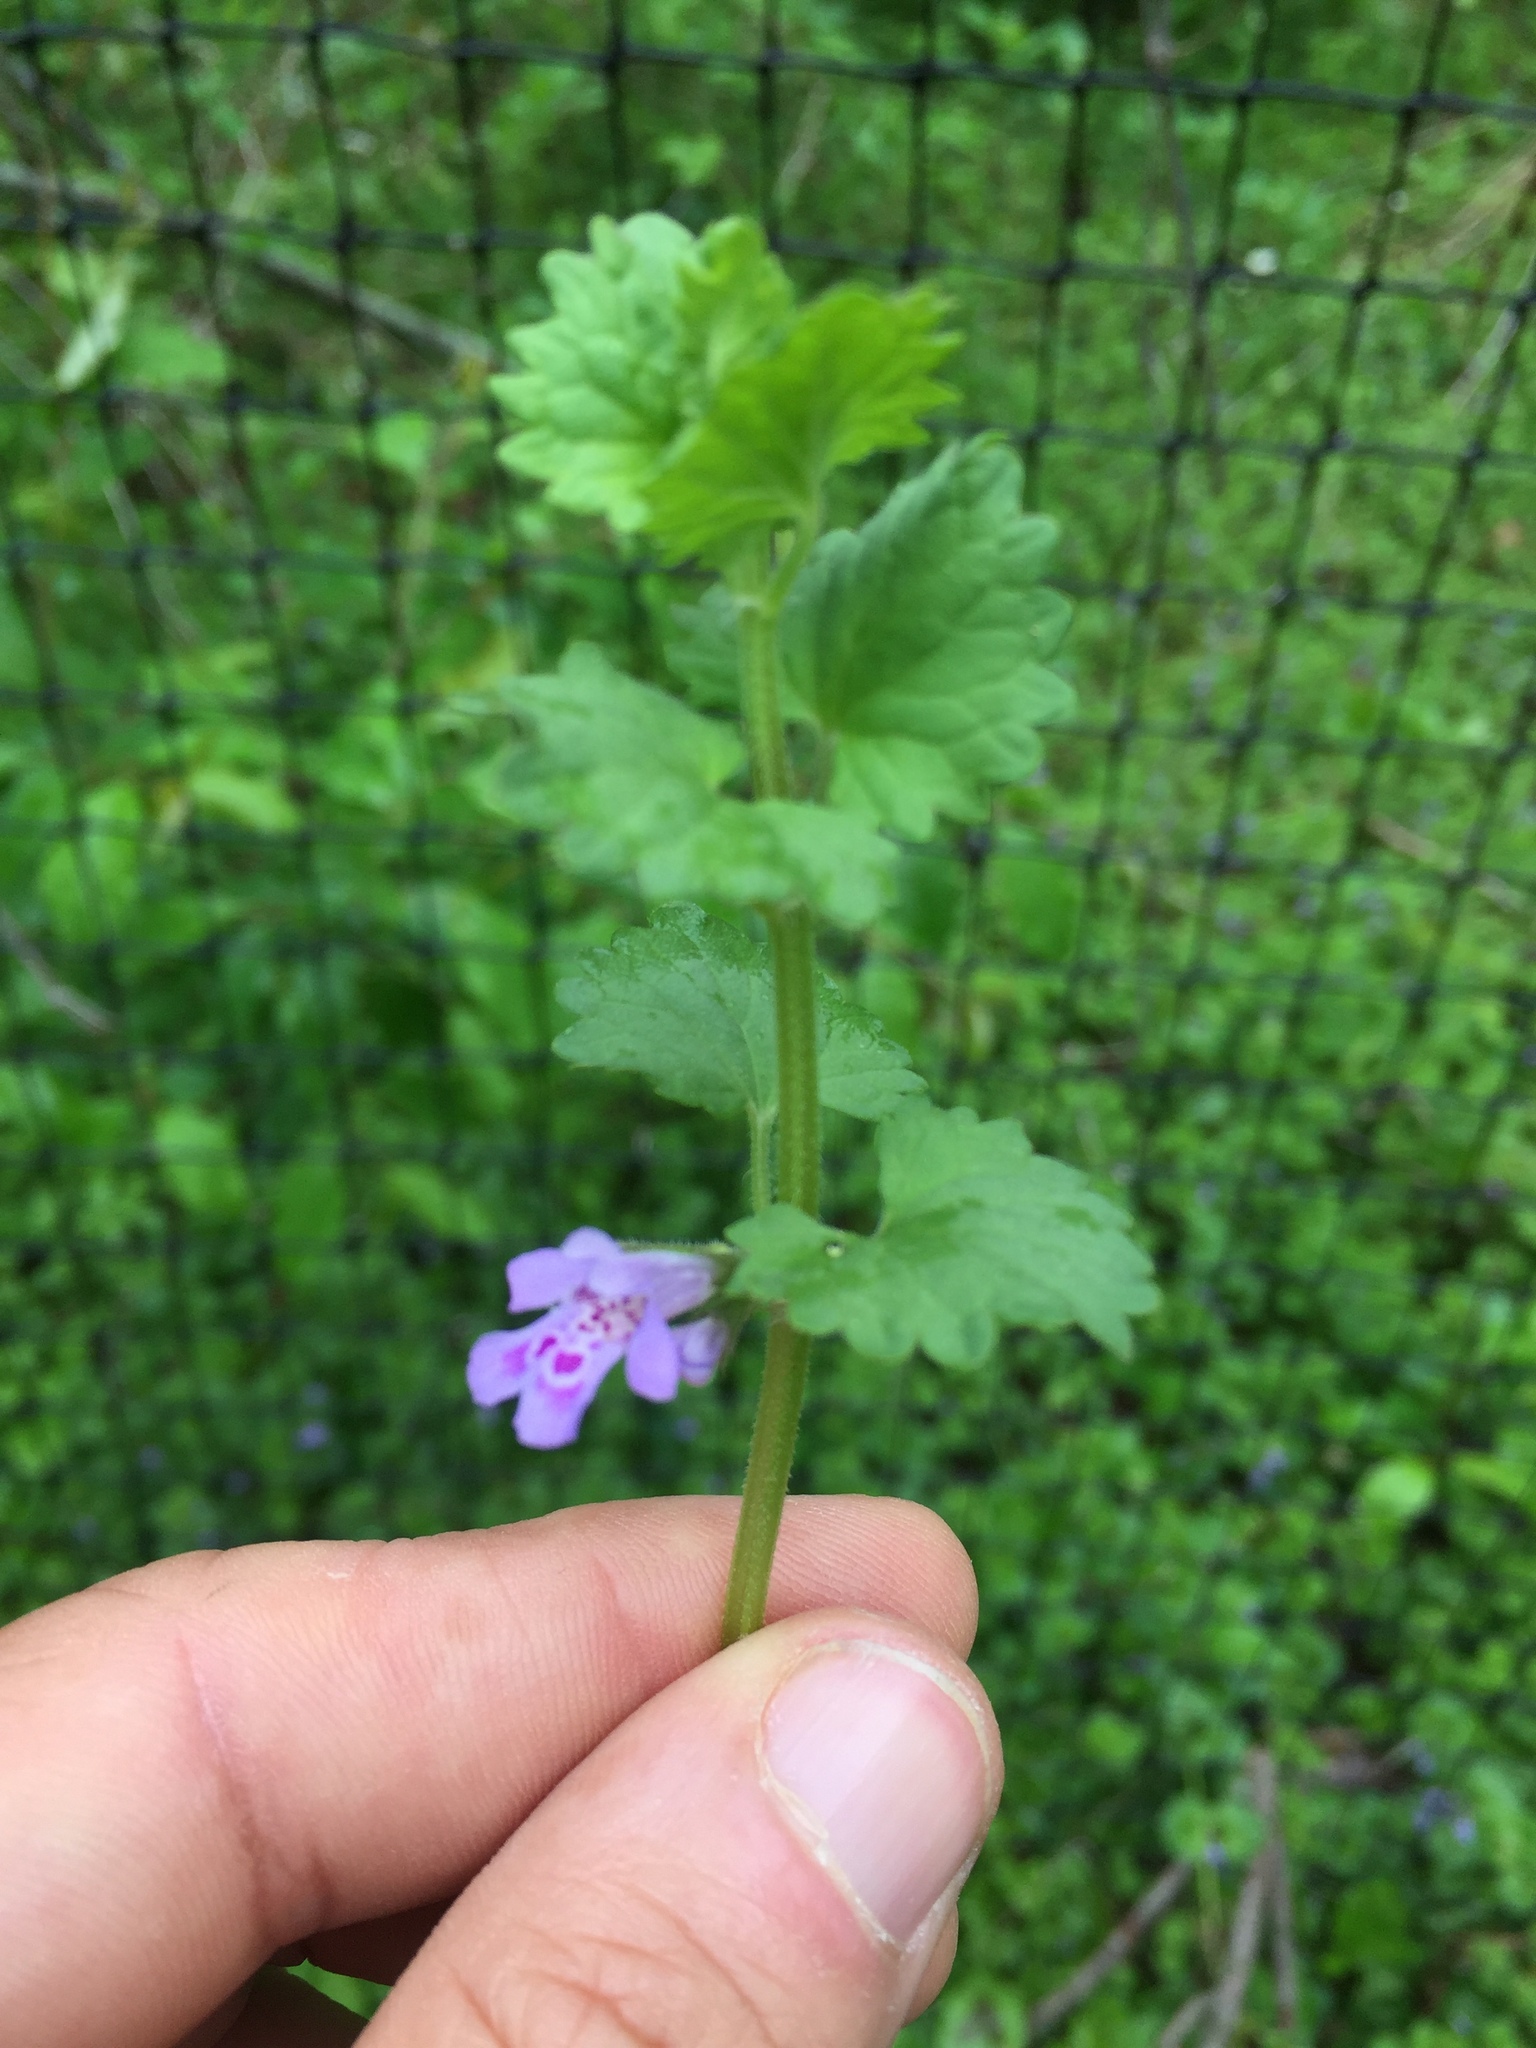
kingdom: Plantae
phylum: Tracheophyta
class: Magnoliopsida
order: Lamiales
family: Lamiaceae
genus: Glechoma
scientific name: Glechoma hederacea
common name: Ground ivy
